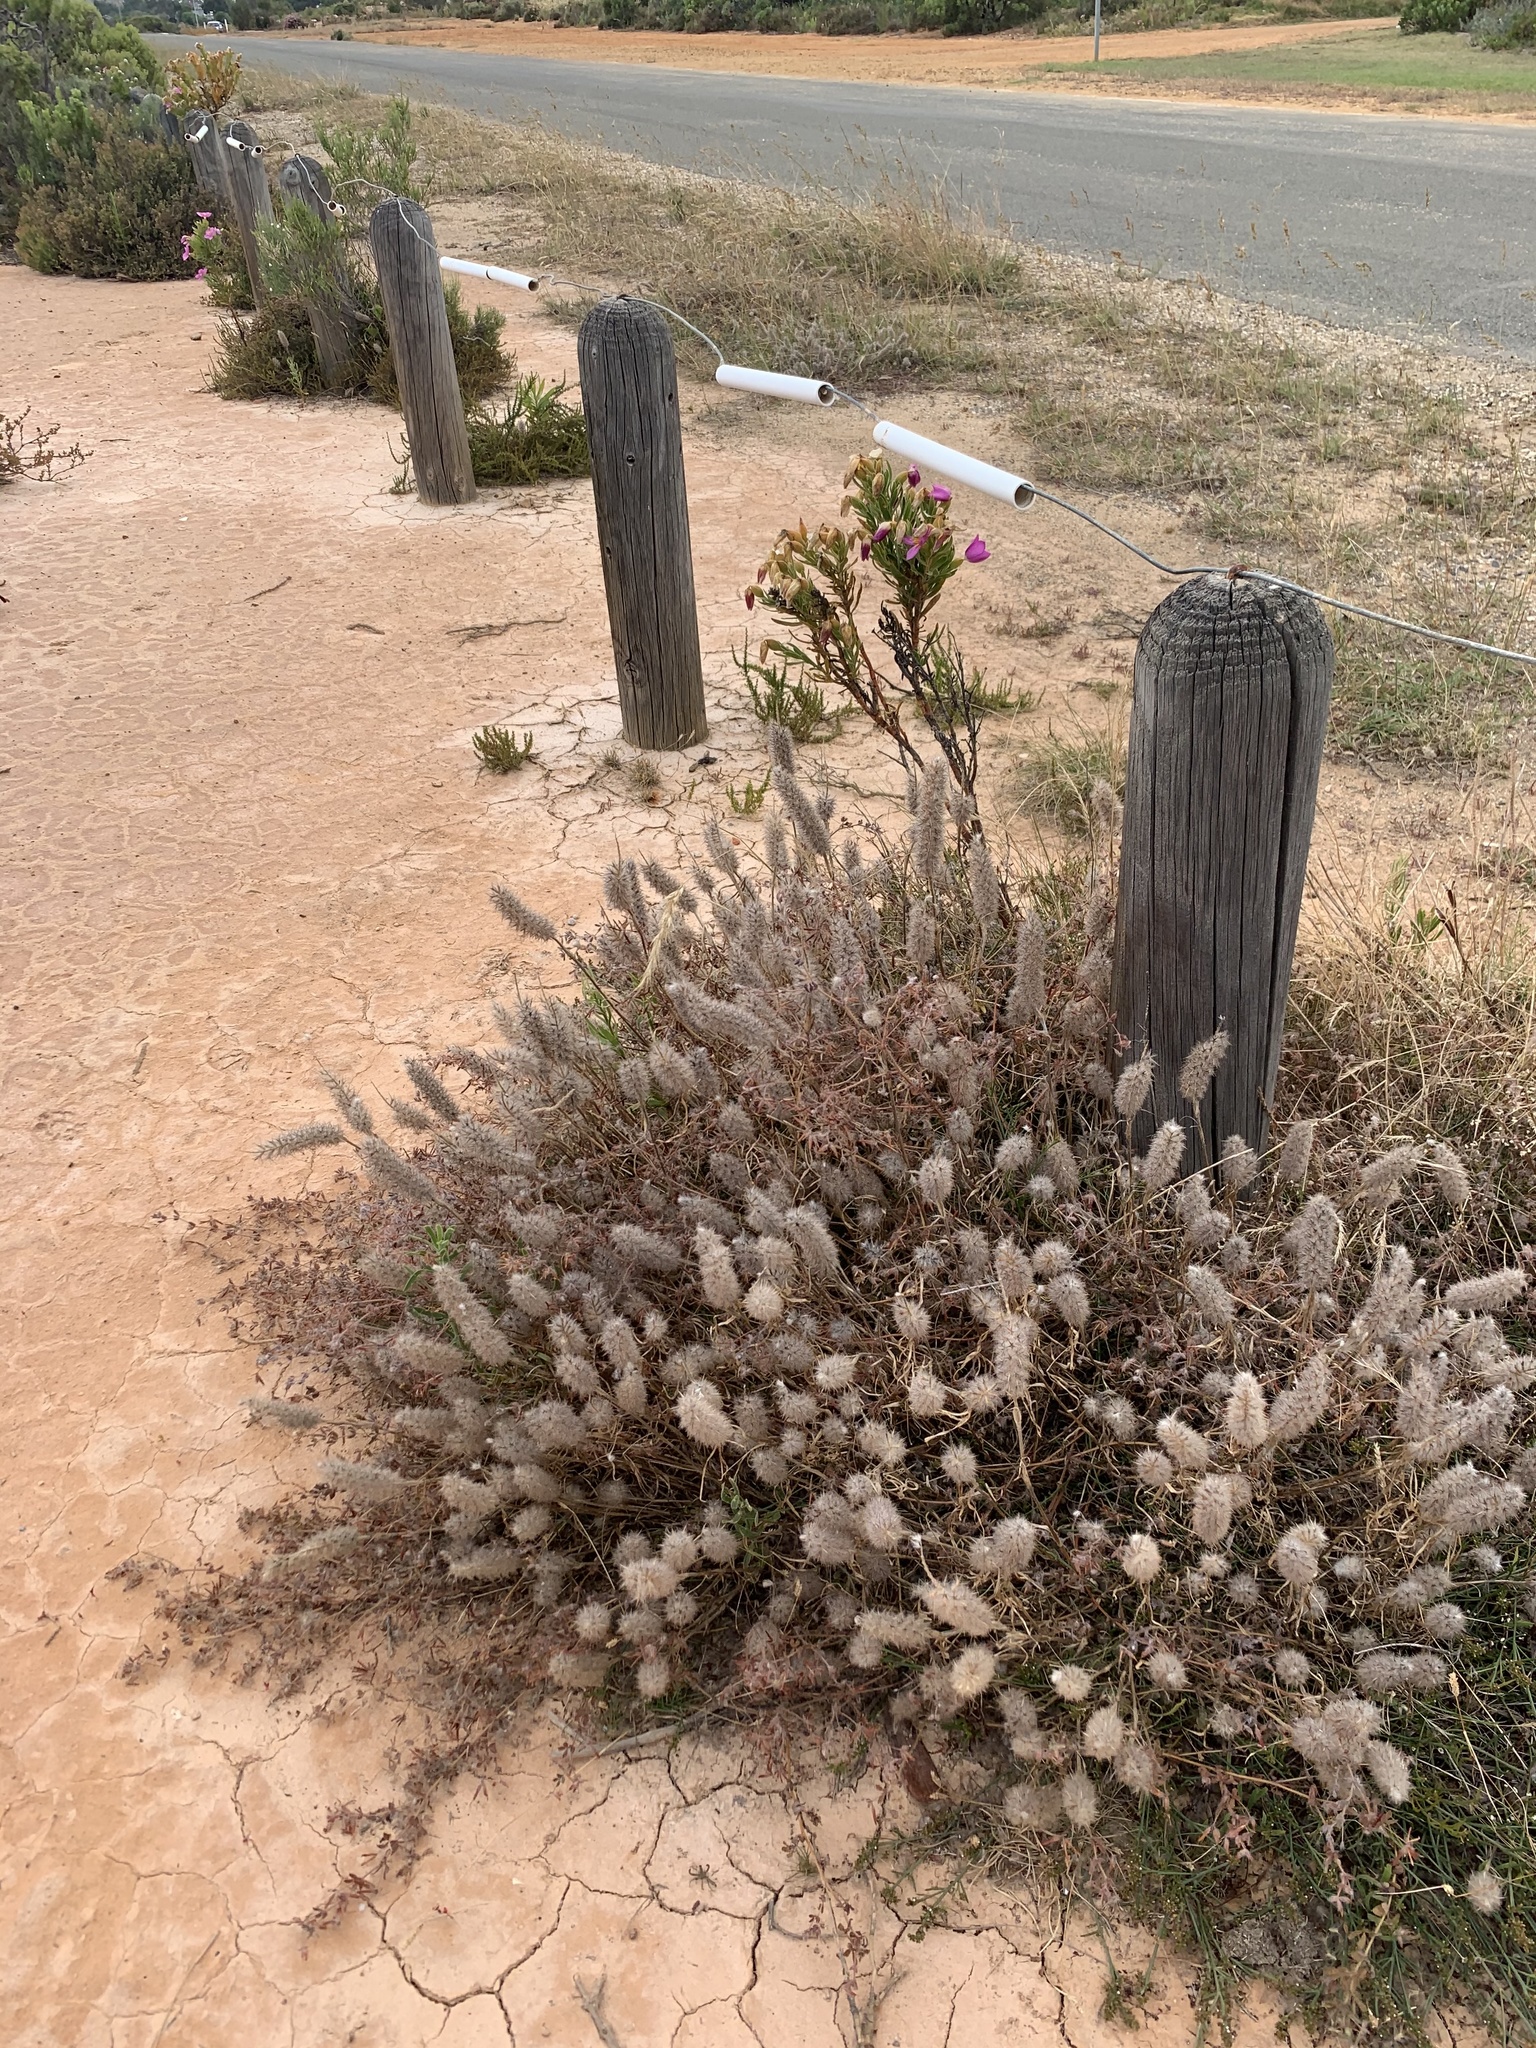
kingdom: Plantae
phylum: Tracheophyta
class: Magnoliopsida
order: Fabales
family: Fabaceae
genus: Trifolium
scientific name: Trifolium angustifolium
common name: Narrow clover
